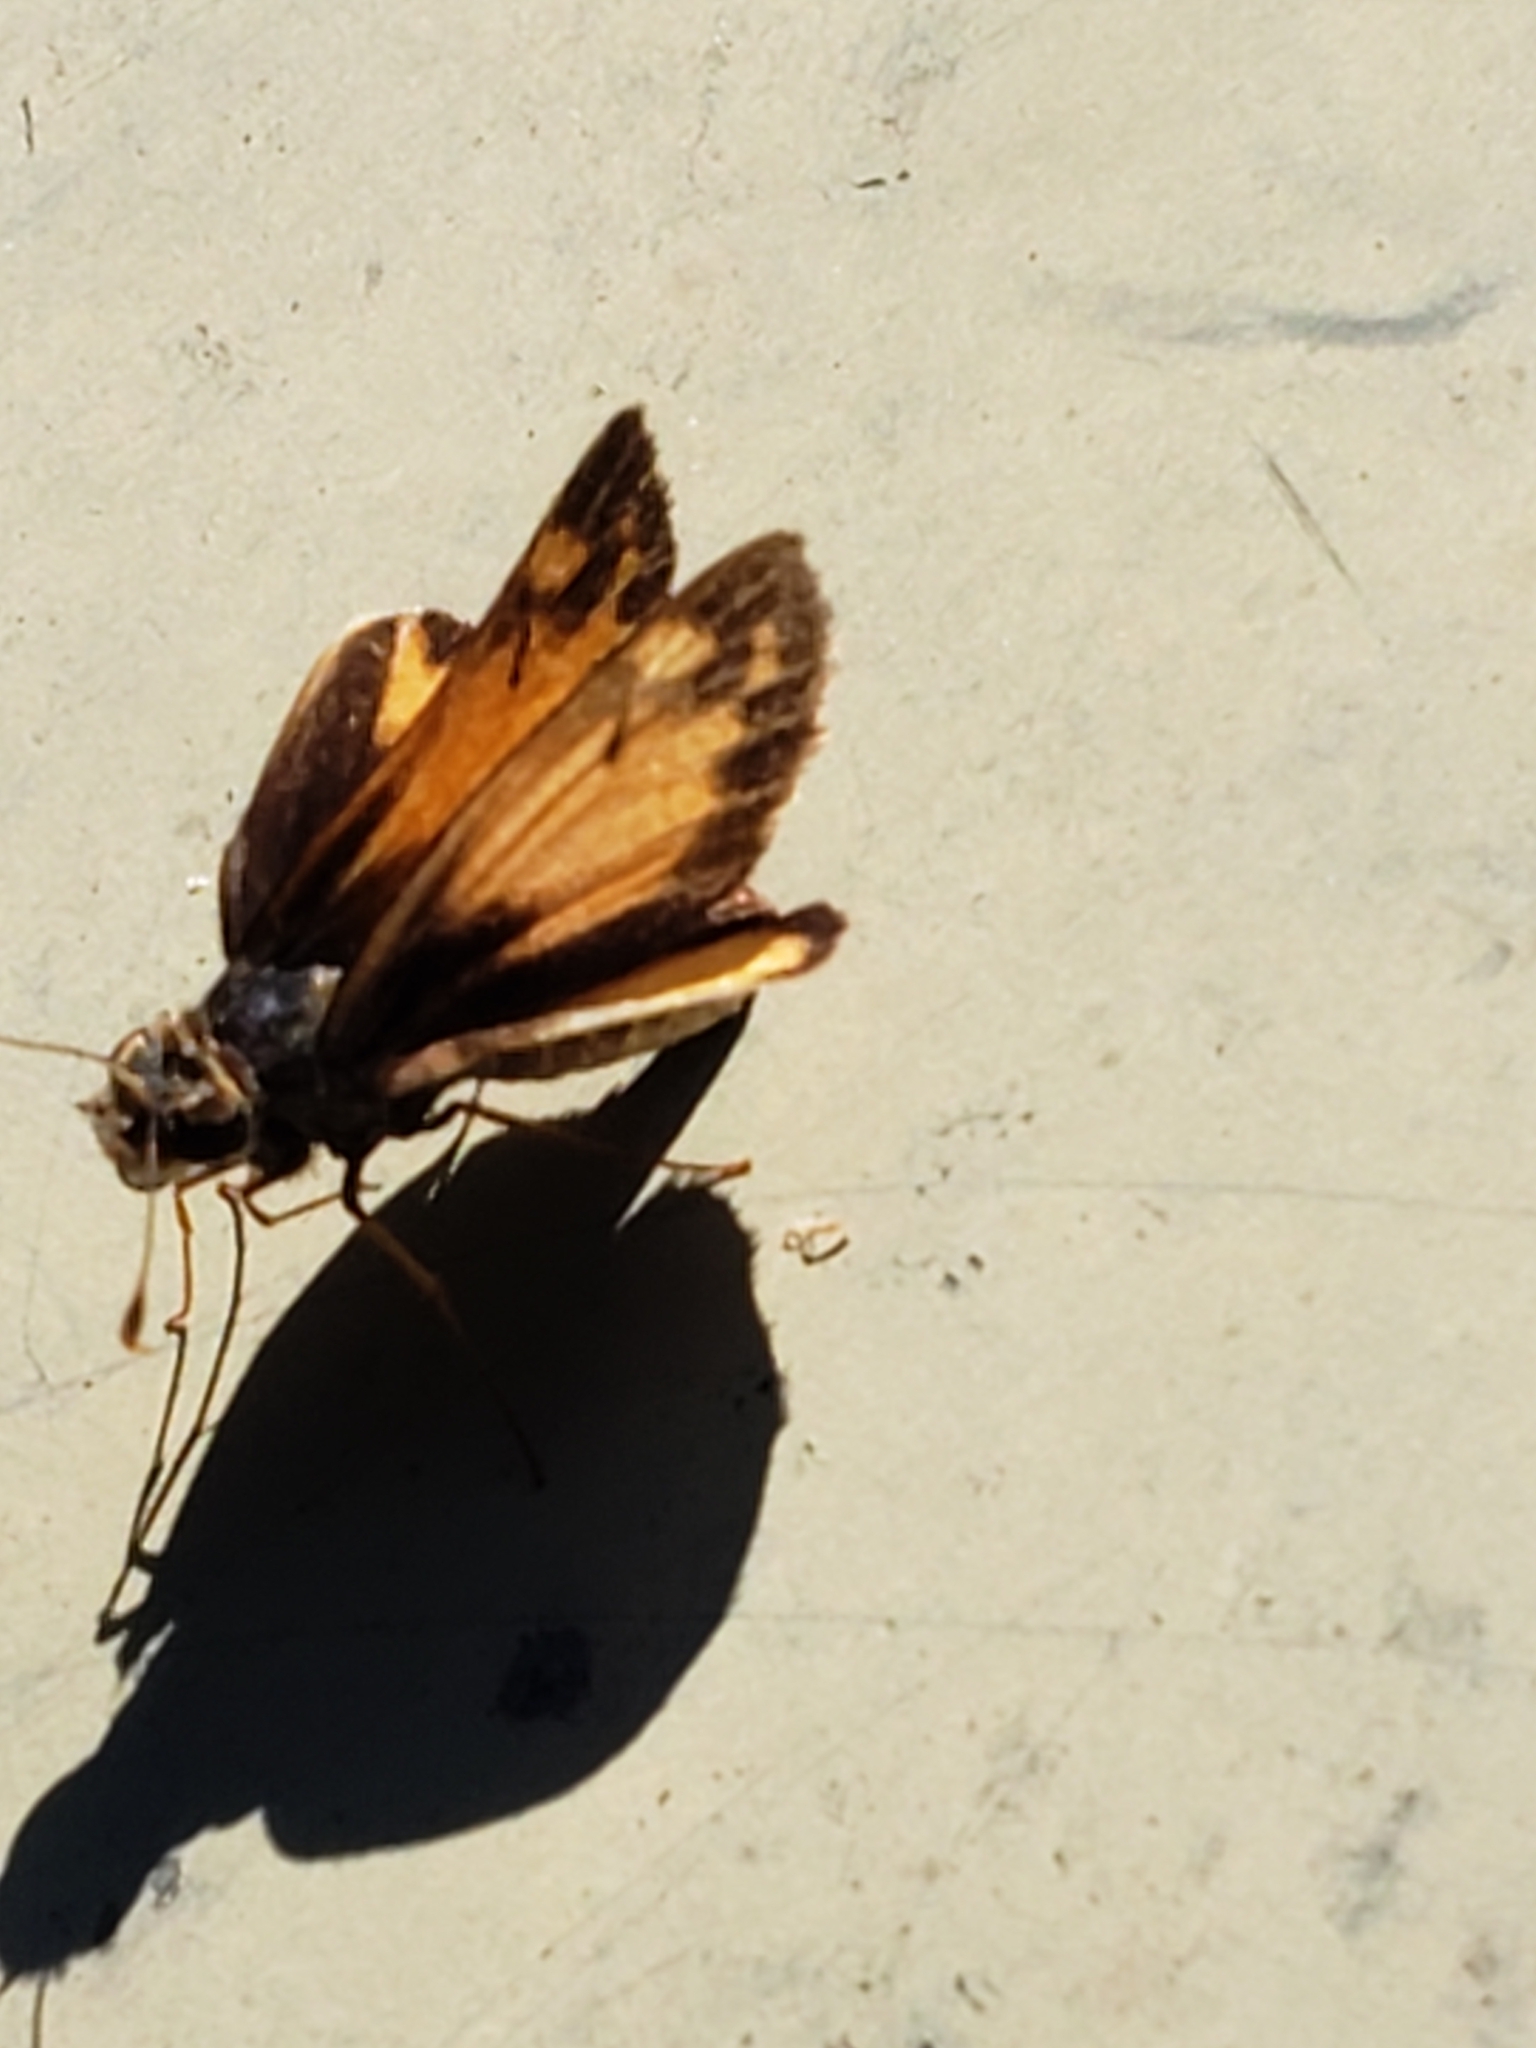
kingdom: Animalia
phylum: Arthropoda
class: Insecta
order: Lepidoptera
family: Hesperiidae
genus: Lon
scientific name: Lon zabulon
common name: Zabulon skipper
